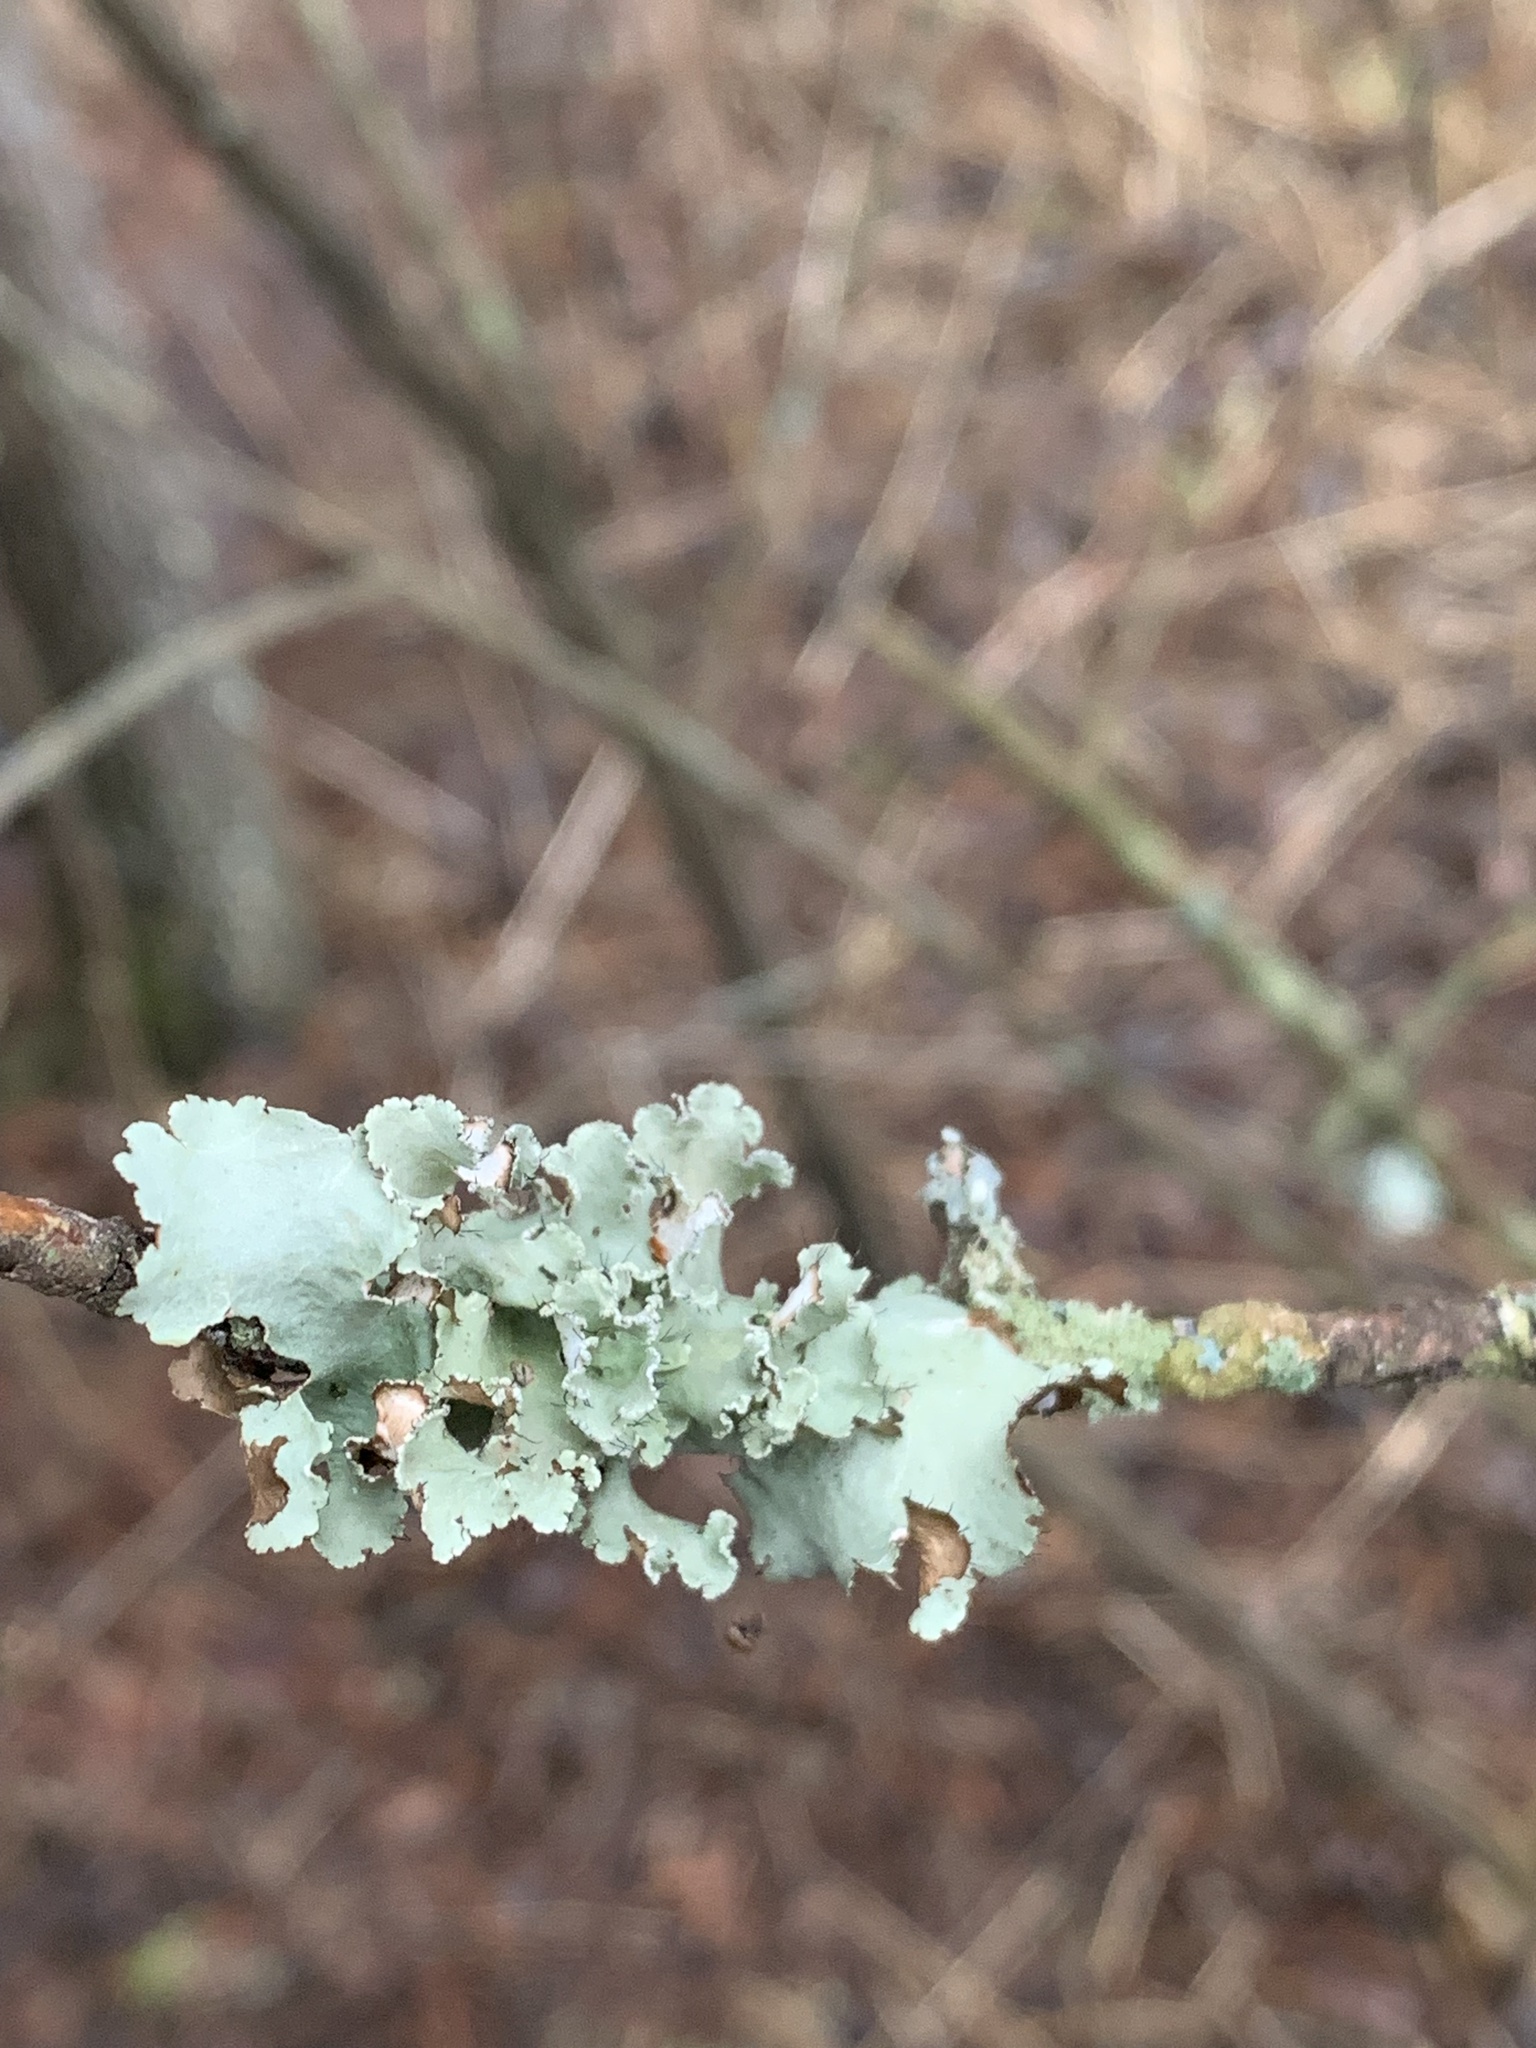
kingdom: Fungi
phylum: Ascomycota
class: Lecanoromycetes
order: Lecanorales
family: Parmeliaceae
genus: Parmotrema
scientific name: Parmotrema hypotropum
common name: Powdered ruffle lichen
